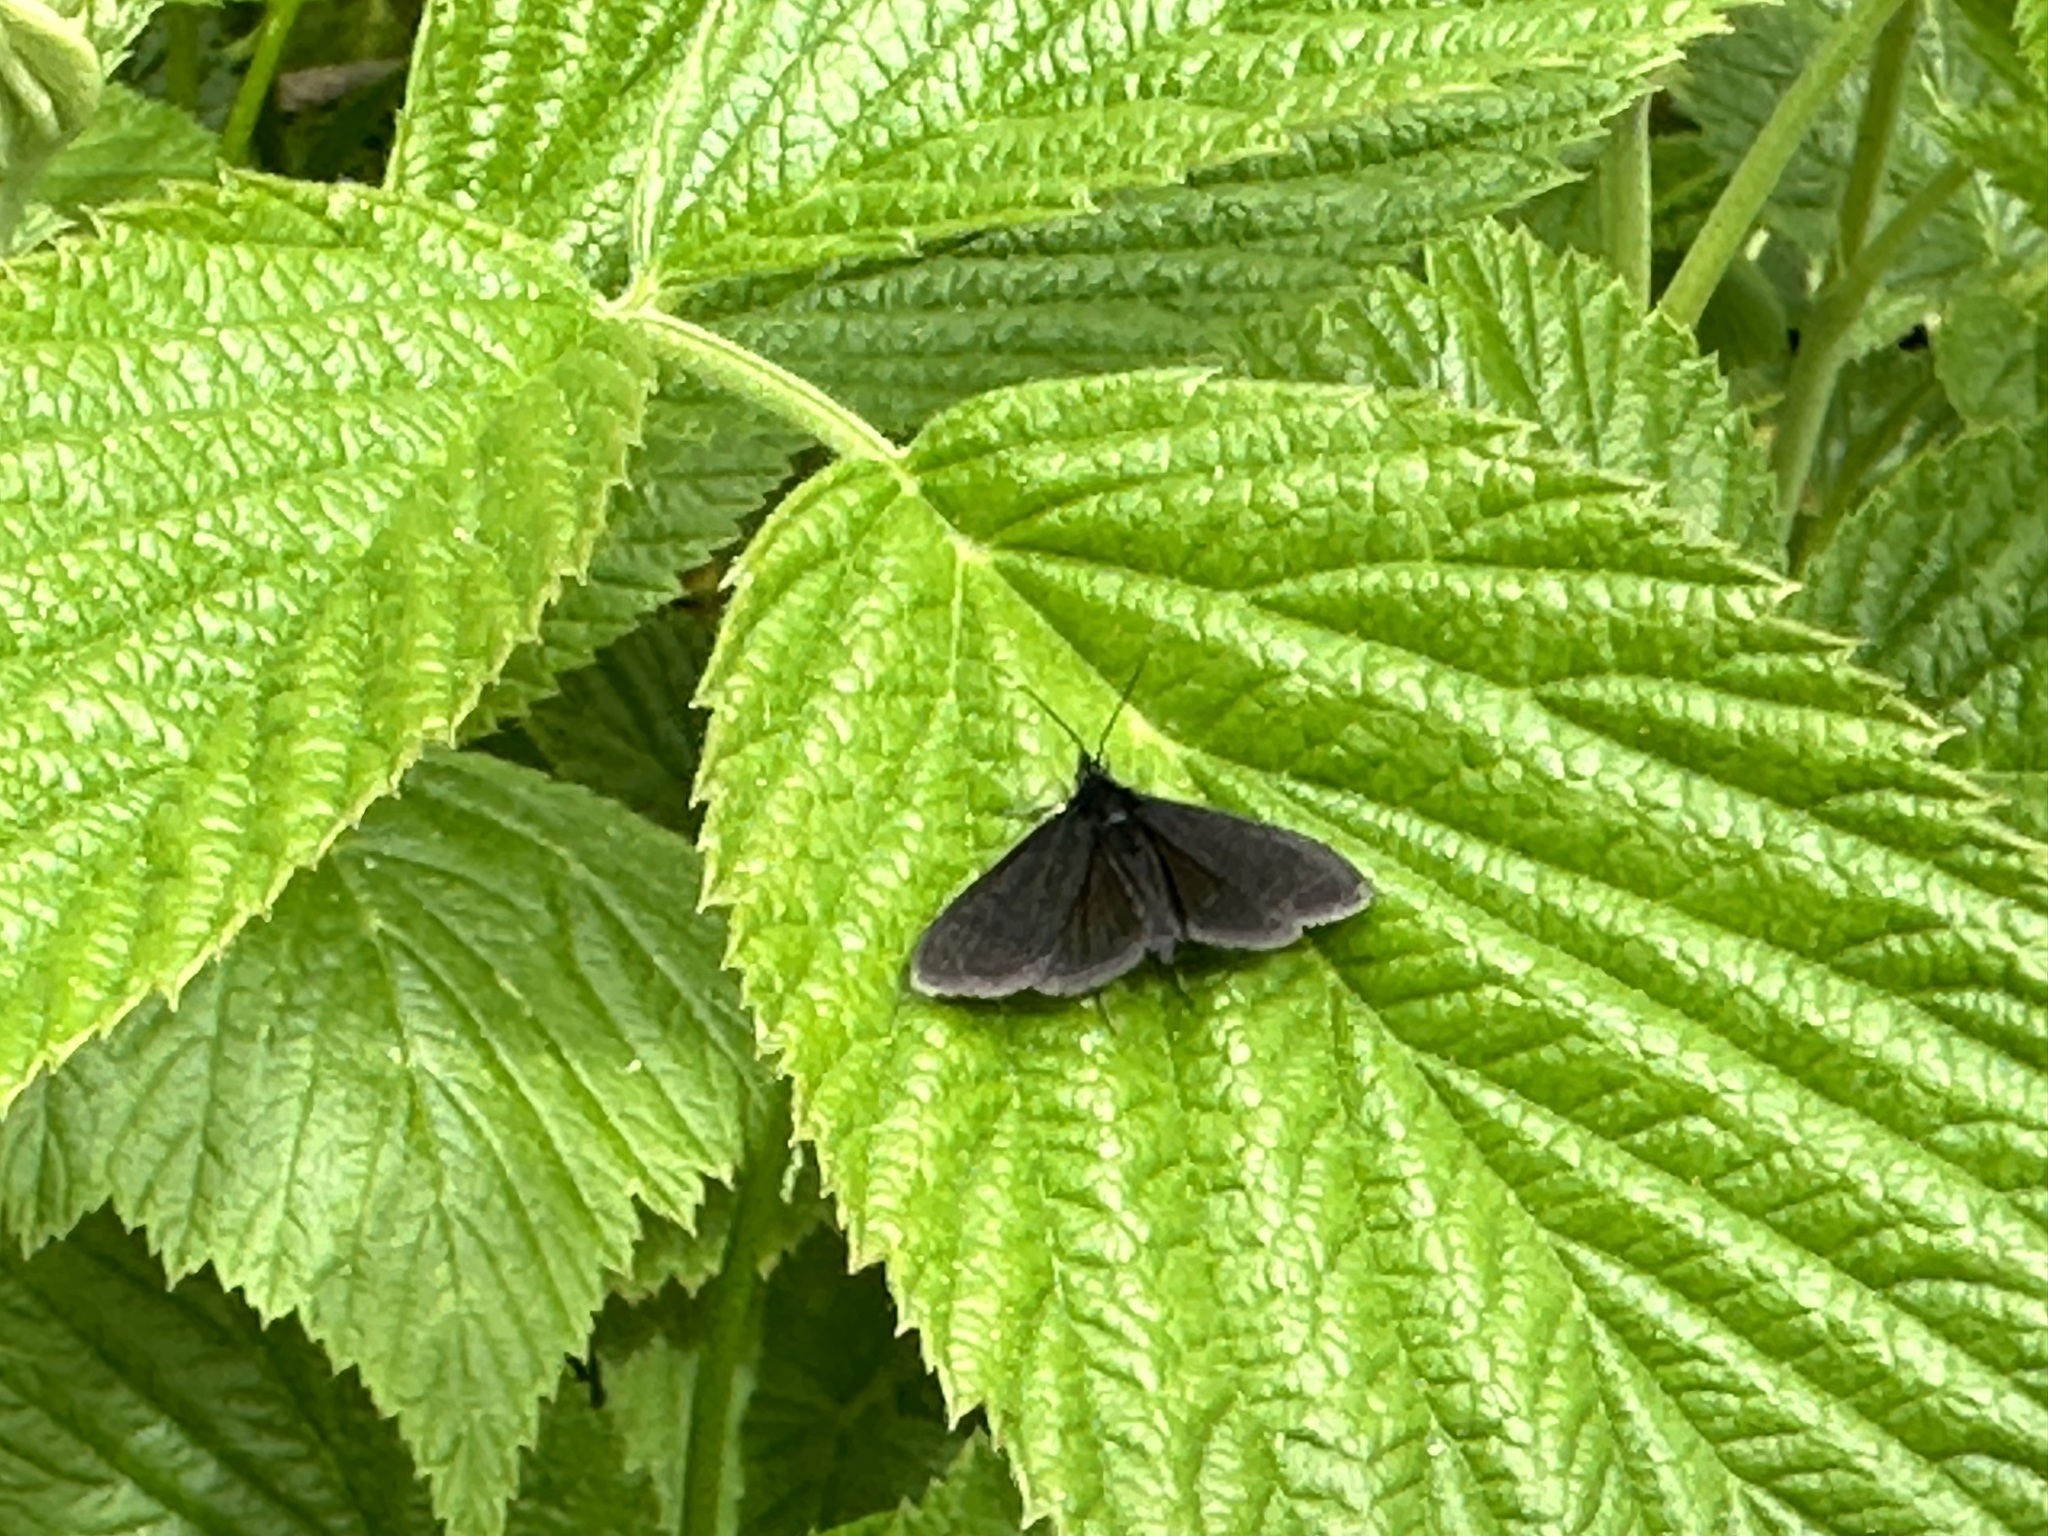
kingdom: Animalia
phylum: Arthropoda
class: Insecta
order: Lepidoptera
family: Geometridae
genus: Odezia
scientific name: Odezia atrata
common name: Chimney sweeper
